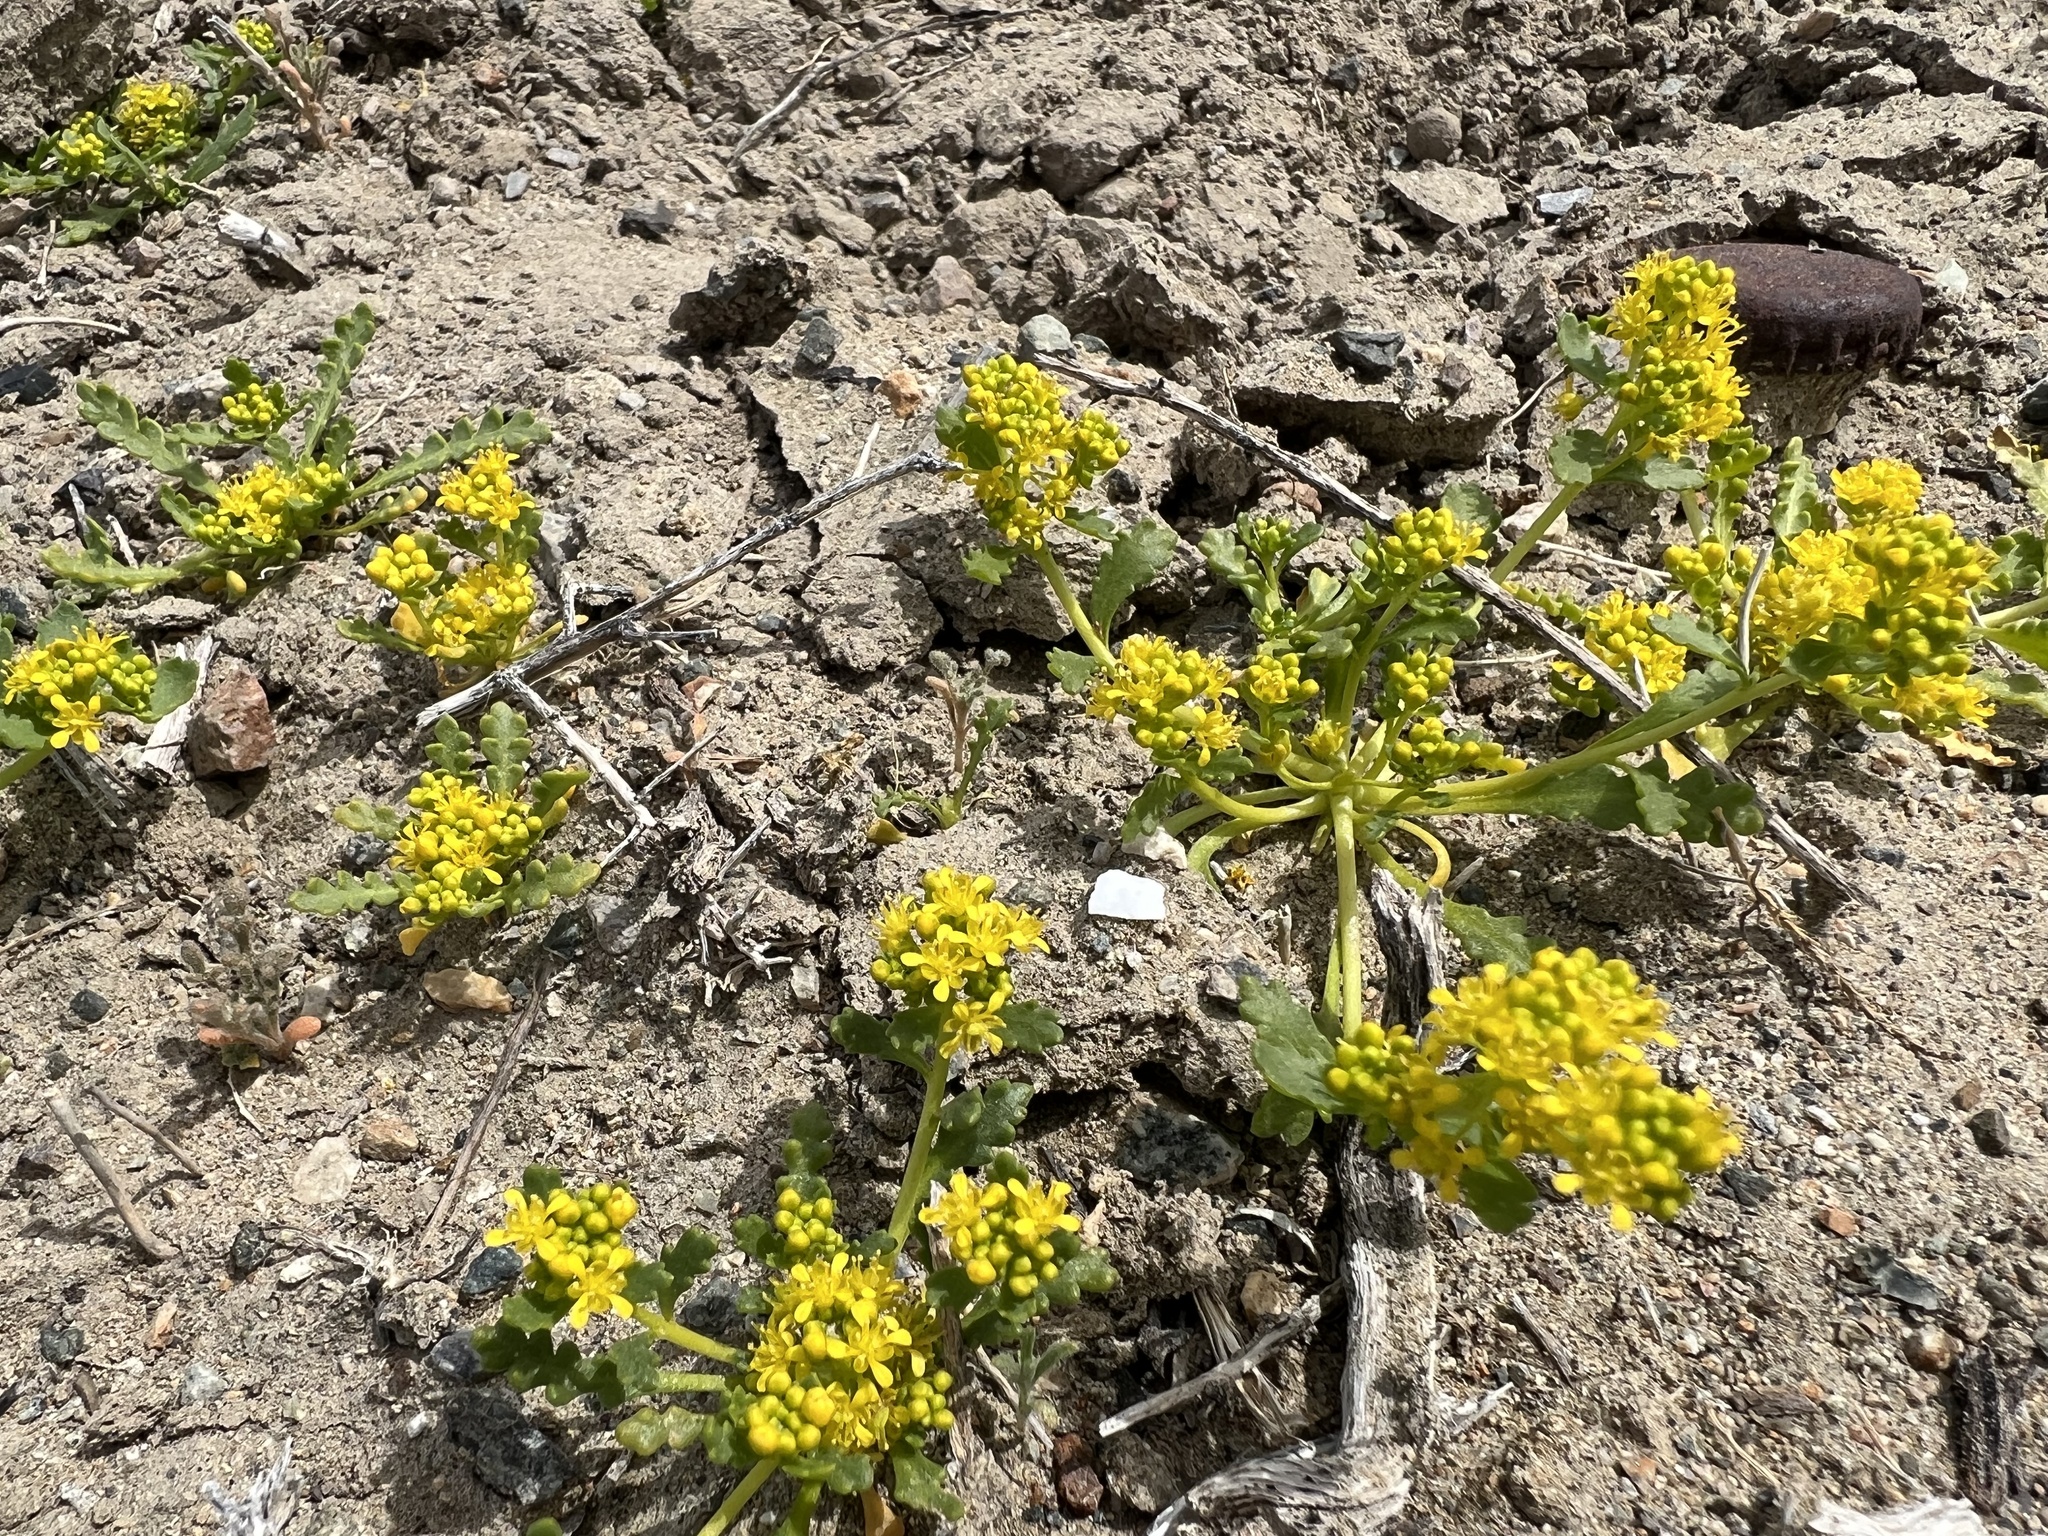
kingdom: Plantae
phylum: Tracheophyta
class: Magnoliopsida
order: Brassicales
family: Brassicaceae
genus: Lepidium
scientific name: Lepidium flavum
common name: Yellow pepperwort
